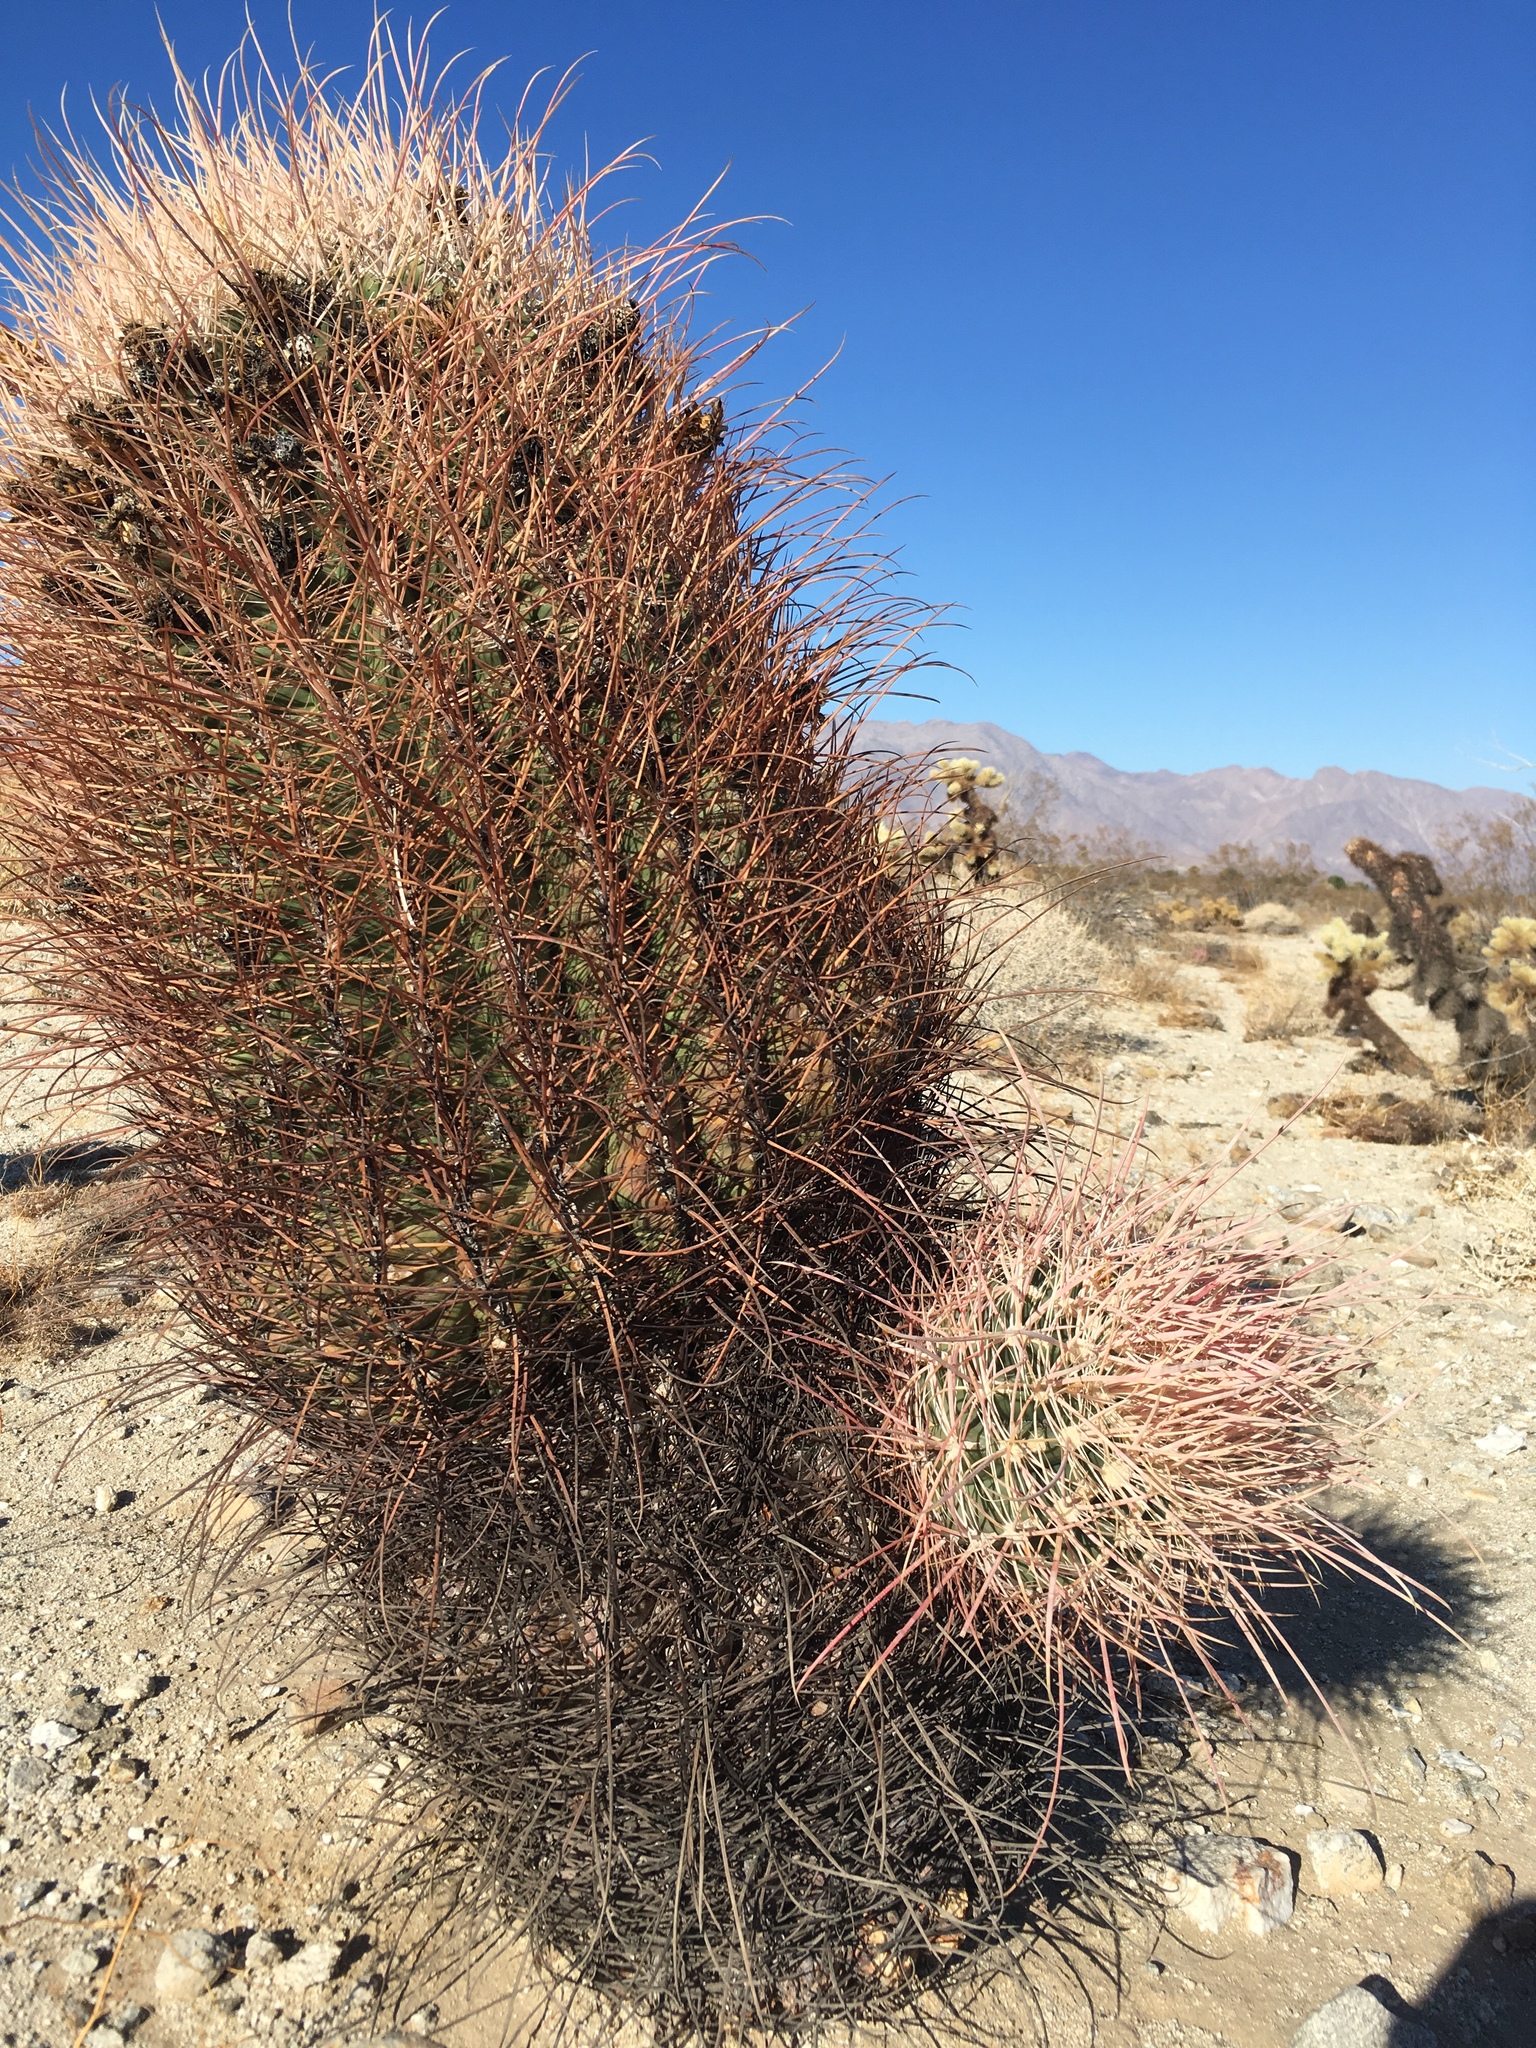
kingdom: Plantae
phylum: Tracheophyta
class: Magnoliopsida
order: Caryophyllales
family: Cactaceae
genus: Ferocactus
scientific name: Ferocactus cylindraceus
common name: California barrel cactus
